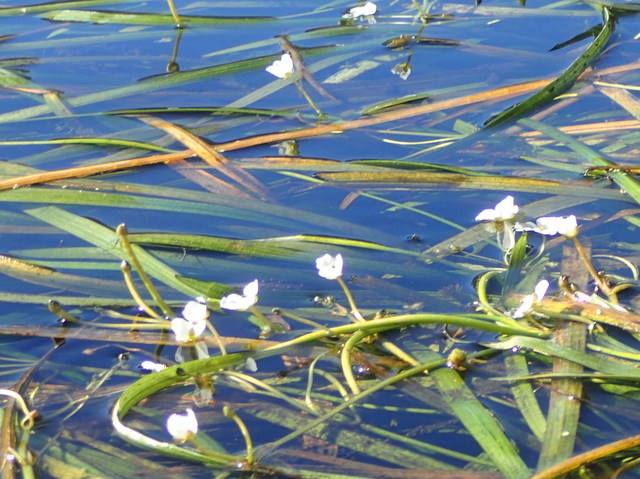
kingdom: Plantae
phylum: Tracheophyta
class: Liliopsida
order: Alismatales
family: Alismataceae
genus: Sagittaria
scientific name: Sagittaria kurziana
